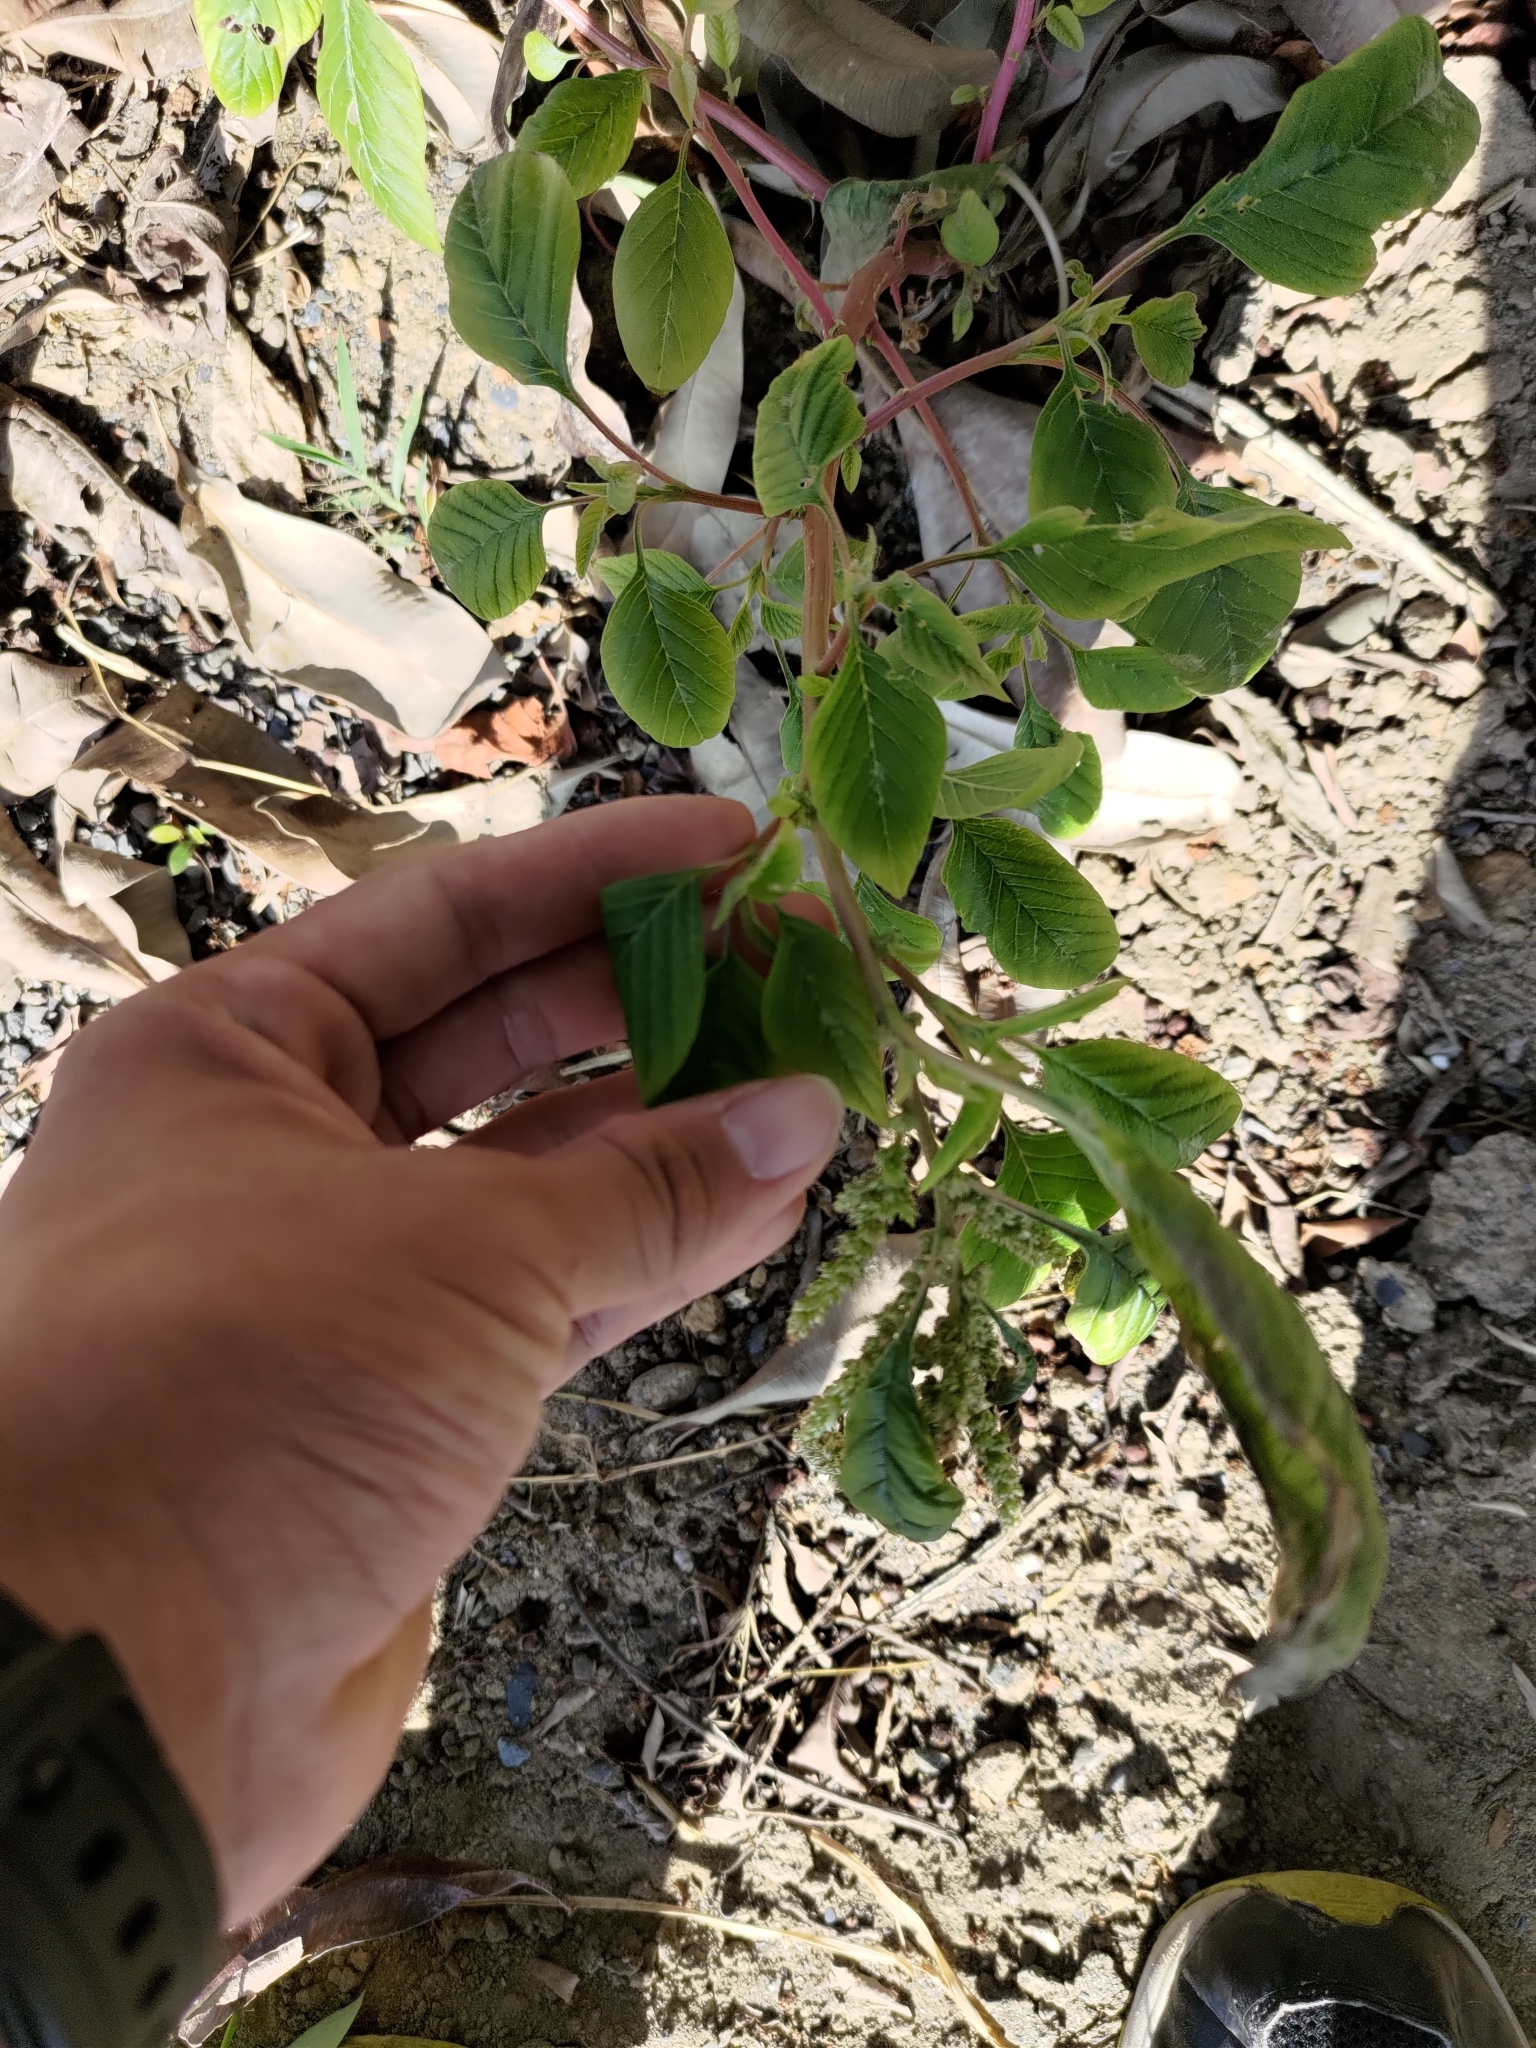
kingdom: Plantae
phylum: Tracheophyta
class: Magnoliopsida
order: Caryophyllales
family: Amaranthaceae
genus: Amaranthus
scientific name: Amaranthus viridis
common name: Slender amaranth
